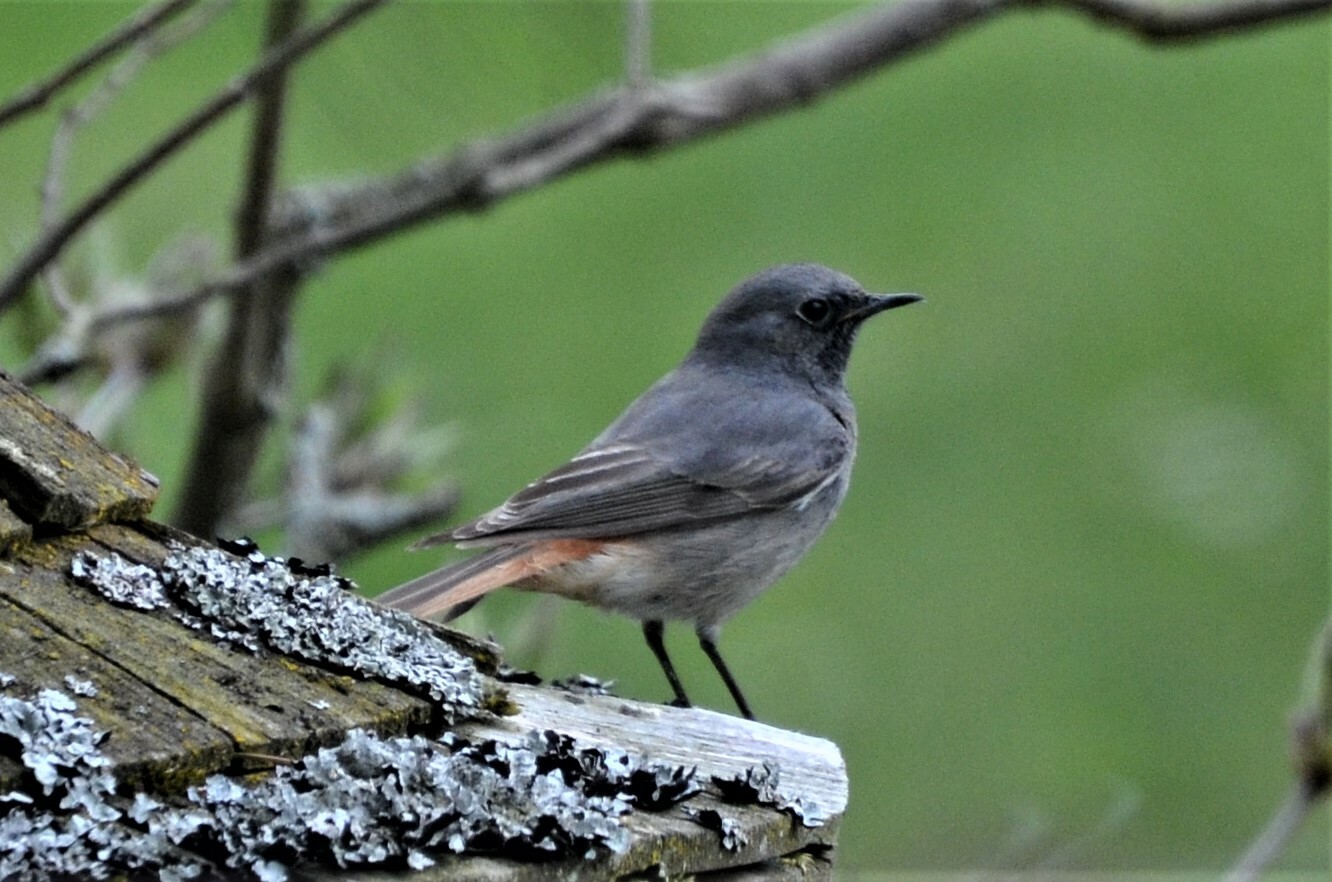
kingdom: Animalia
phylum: Chordata
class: Aves
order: Passeriformes
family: Muscicapidae
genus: Phoenicurus
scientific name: Phoenicurus ochruros
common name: Black redstart
